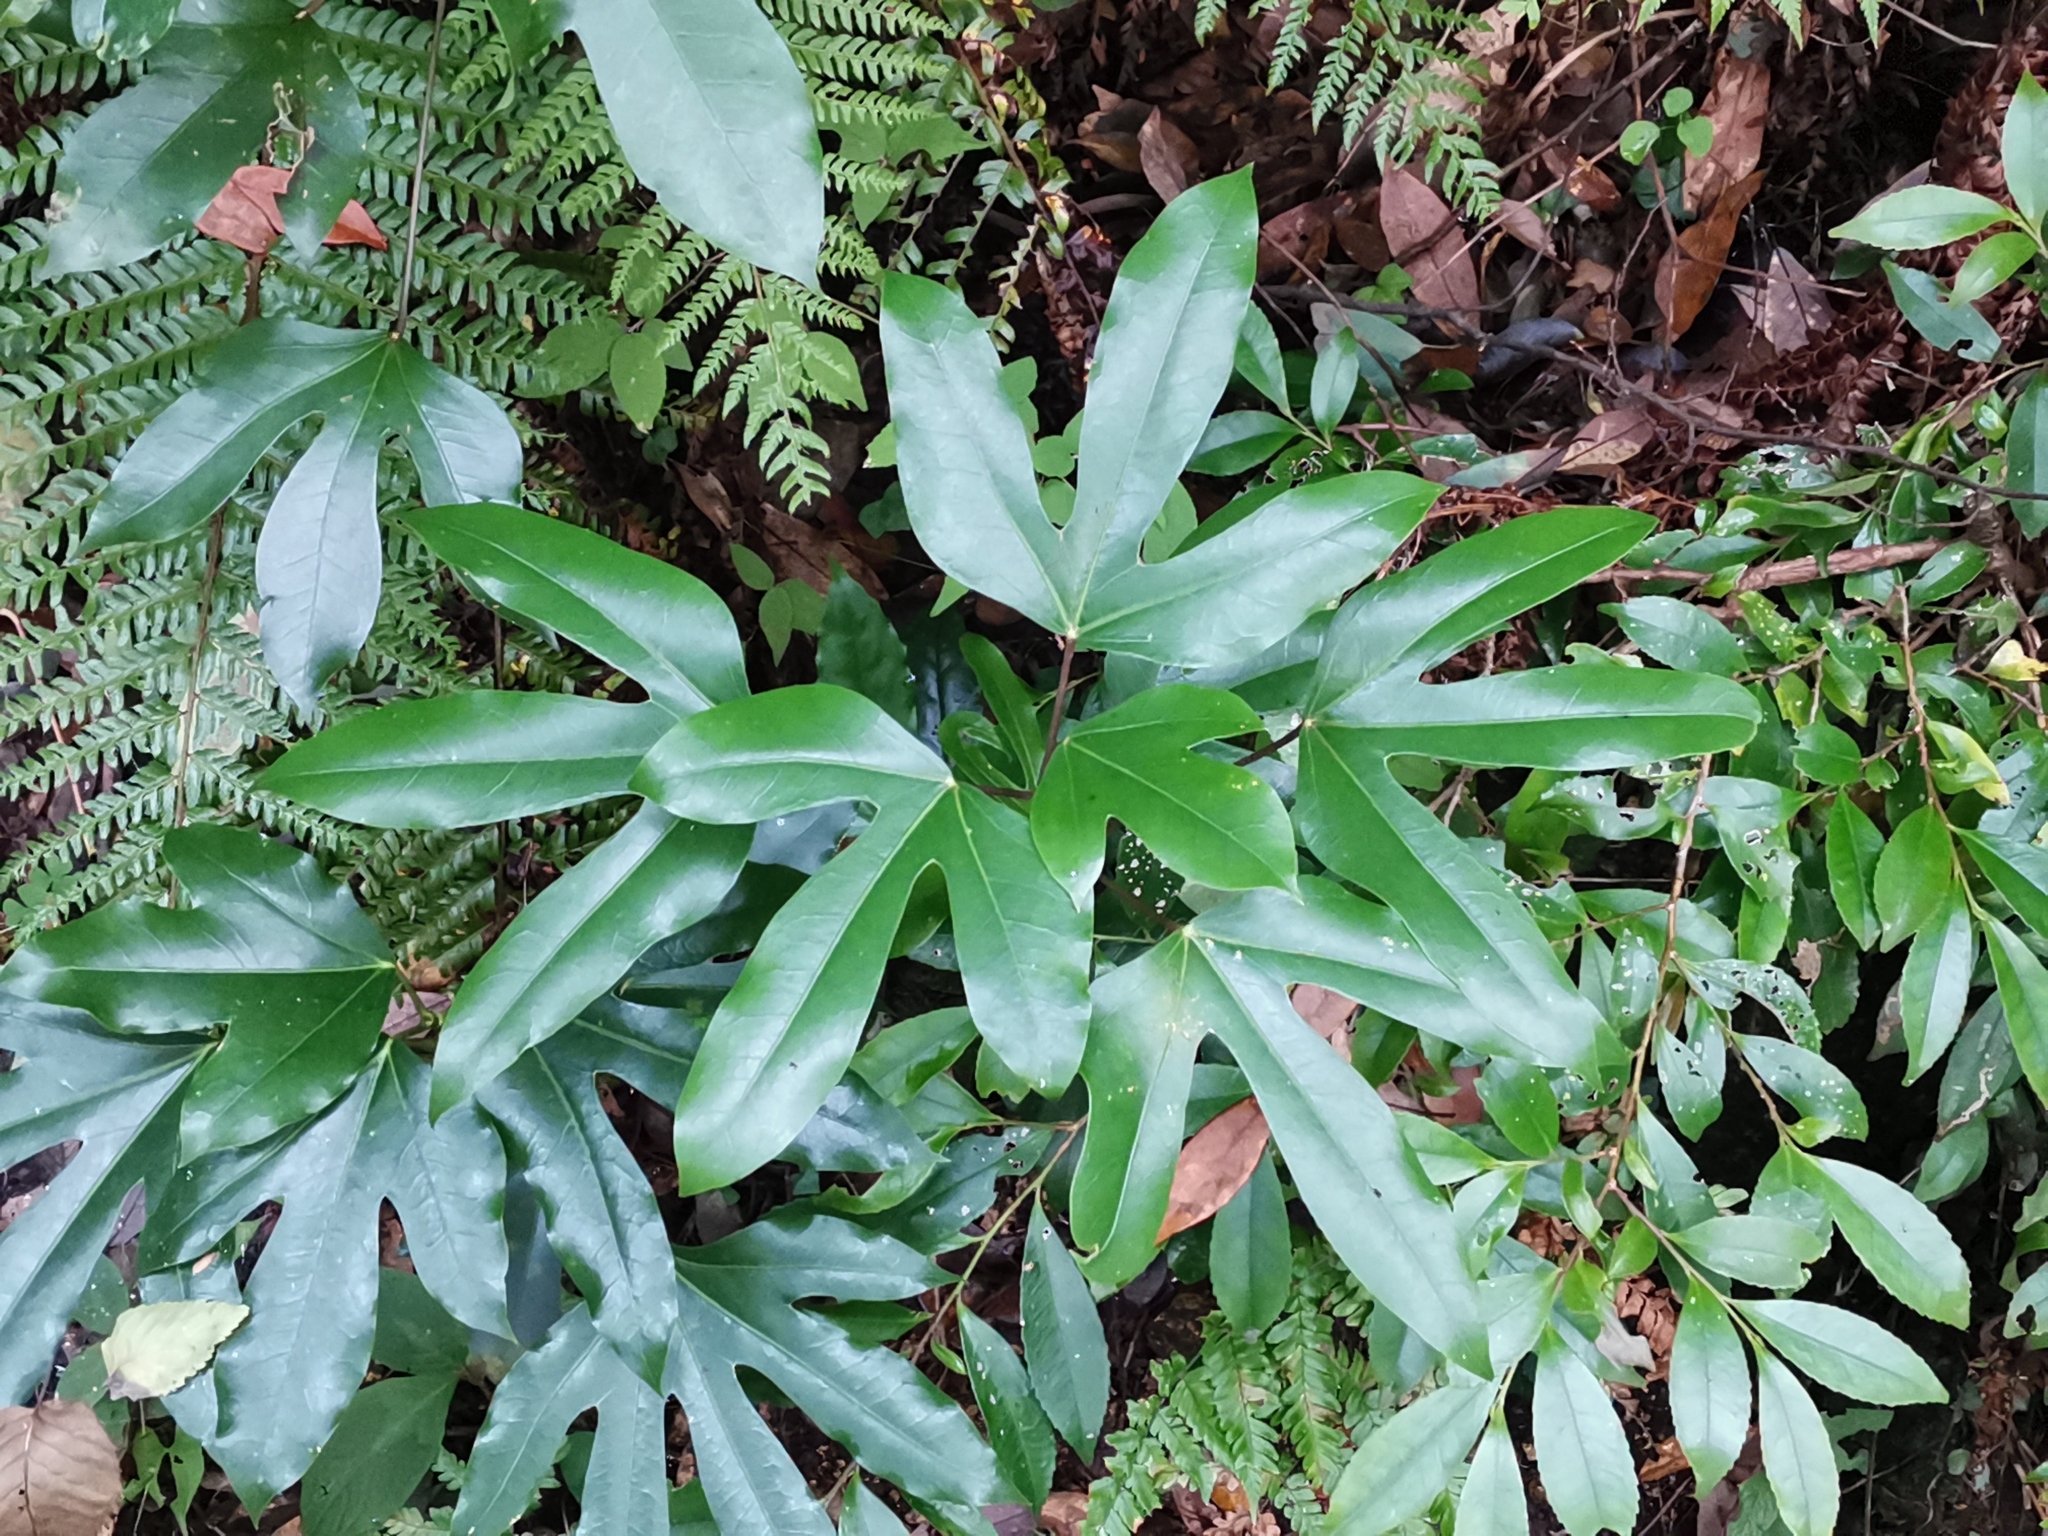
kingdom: Plantae
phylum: Tracheophyta
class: Magnoliopsida
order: Apiales
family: Araliaceae
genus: Dendropanax
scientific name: Dendropanax trifidus
